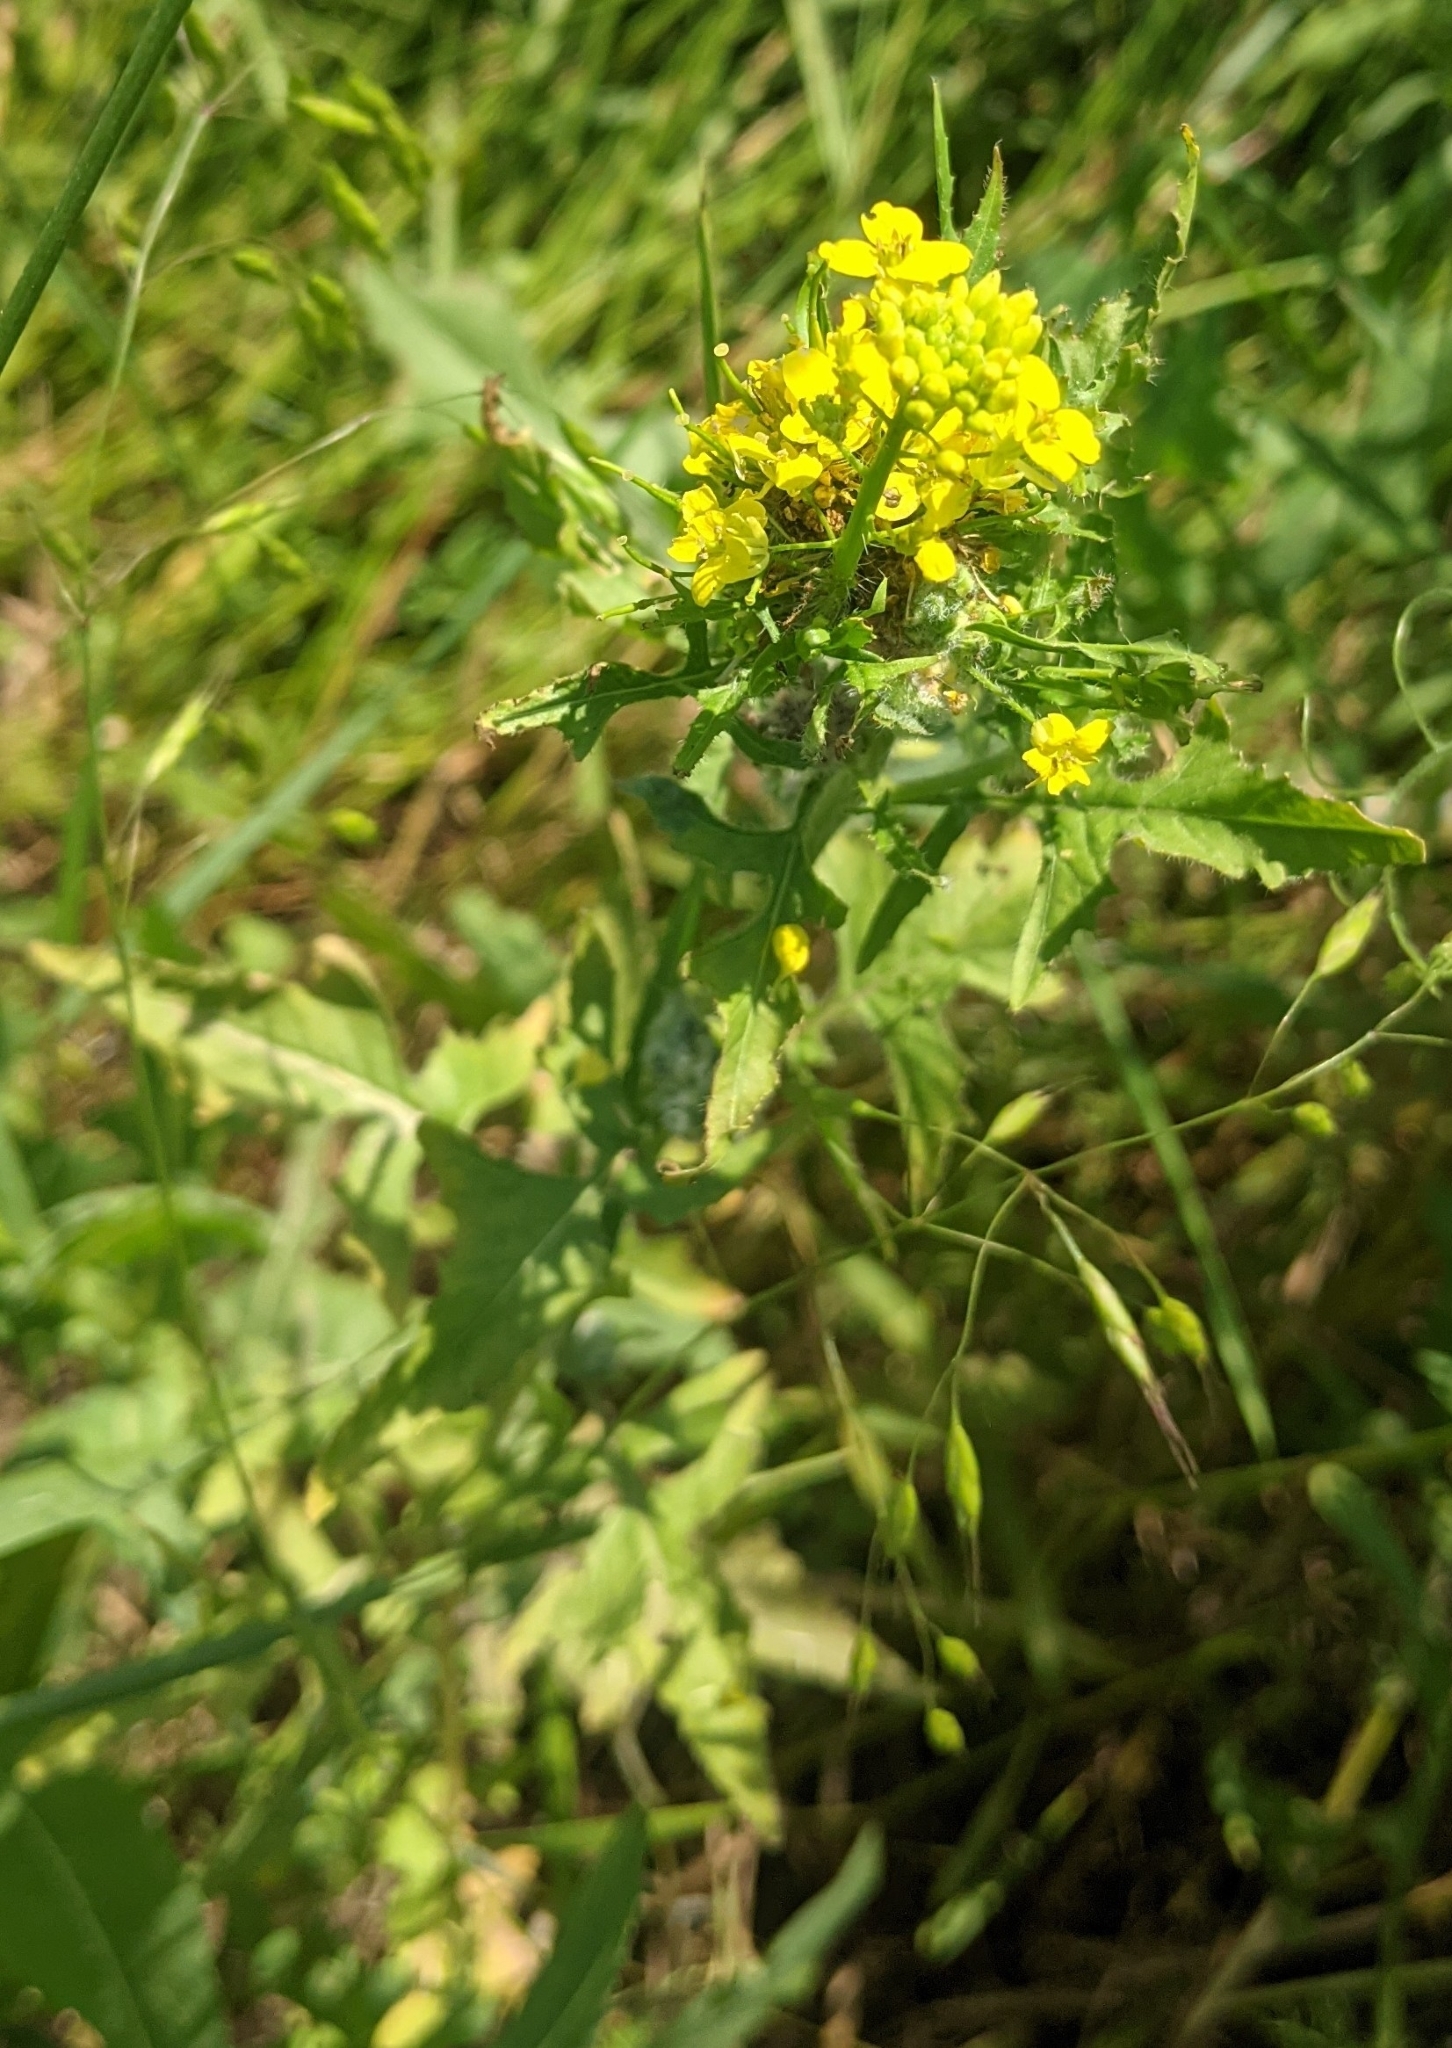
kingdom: Plantae
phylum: Tracheophyta
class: Magnoliopsida
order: Brassicales
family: Brassicaceae
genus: Sisymbrium
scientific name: Sisymbrium officinale
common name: Hedge mustard
